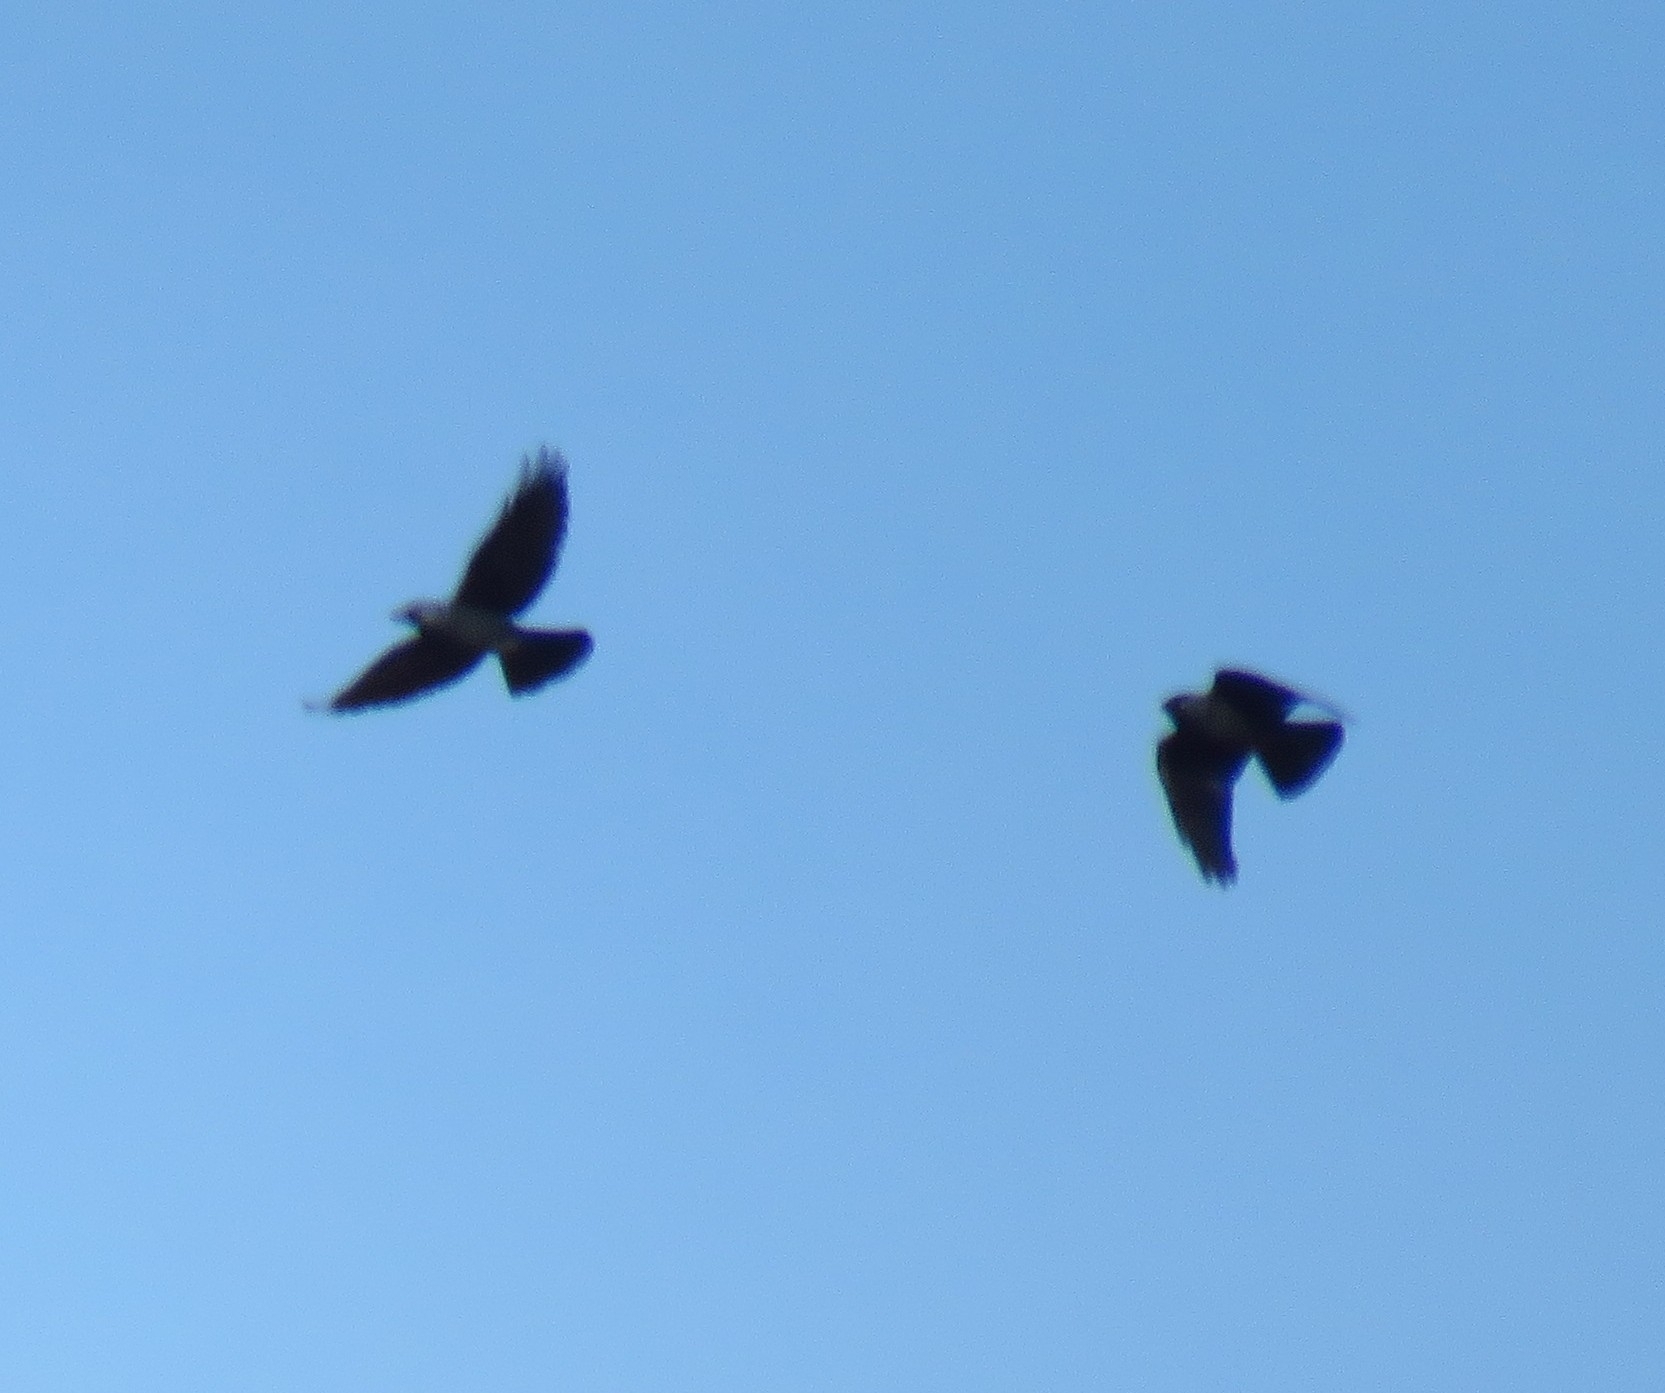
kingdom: Animalia
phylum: Chordata
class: Aves
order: Passeriformes
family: Corvidae
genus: Coloeus
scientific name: Coloeus monedula
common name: Western jackdaw
